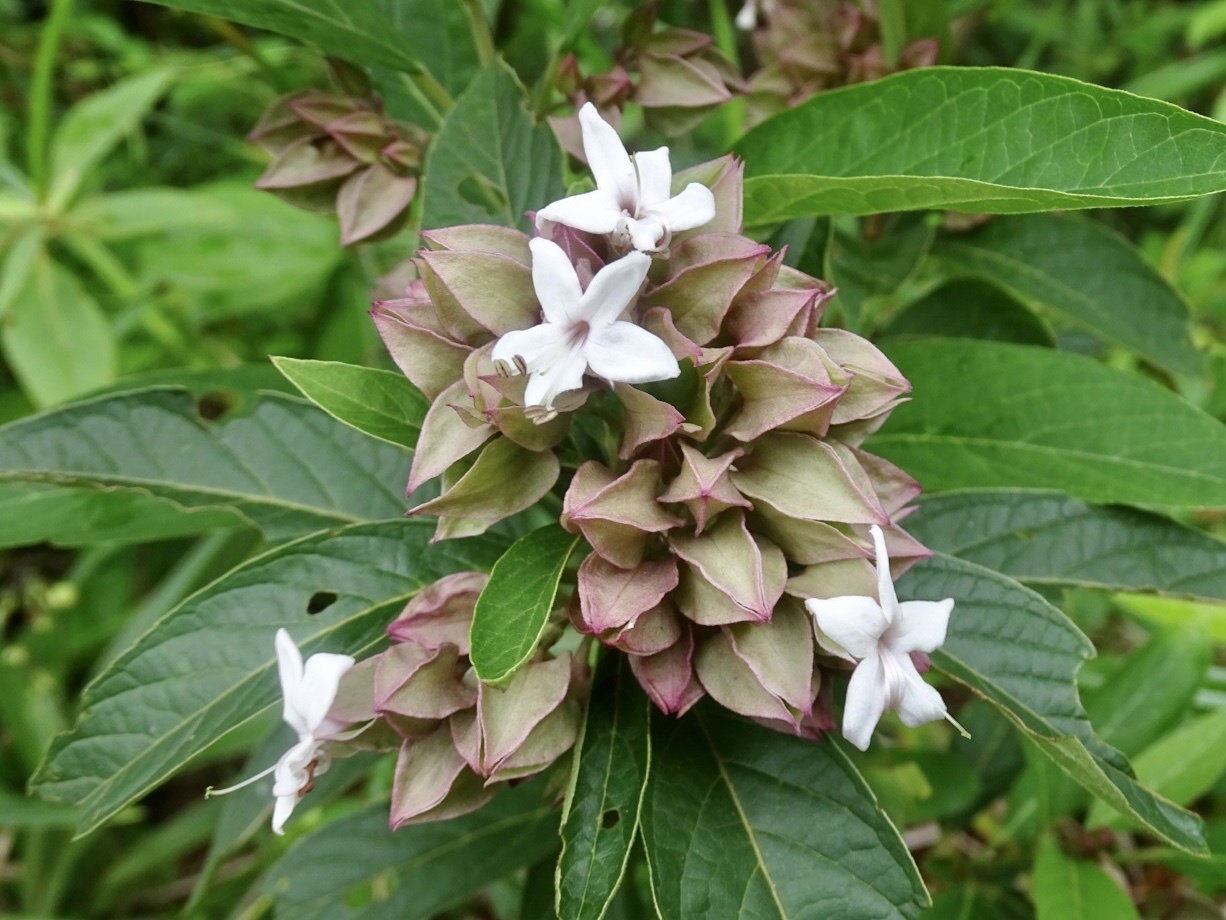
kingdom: Plantae
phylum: Tracheophyta
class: Magnoliopsida
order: Lamiales
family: Lamiaceae
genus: Clerodendrum
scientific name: Clerodendrum fortunatum
